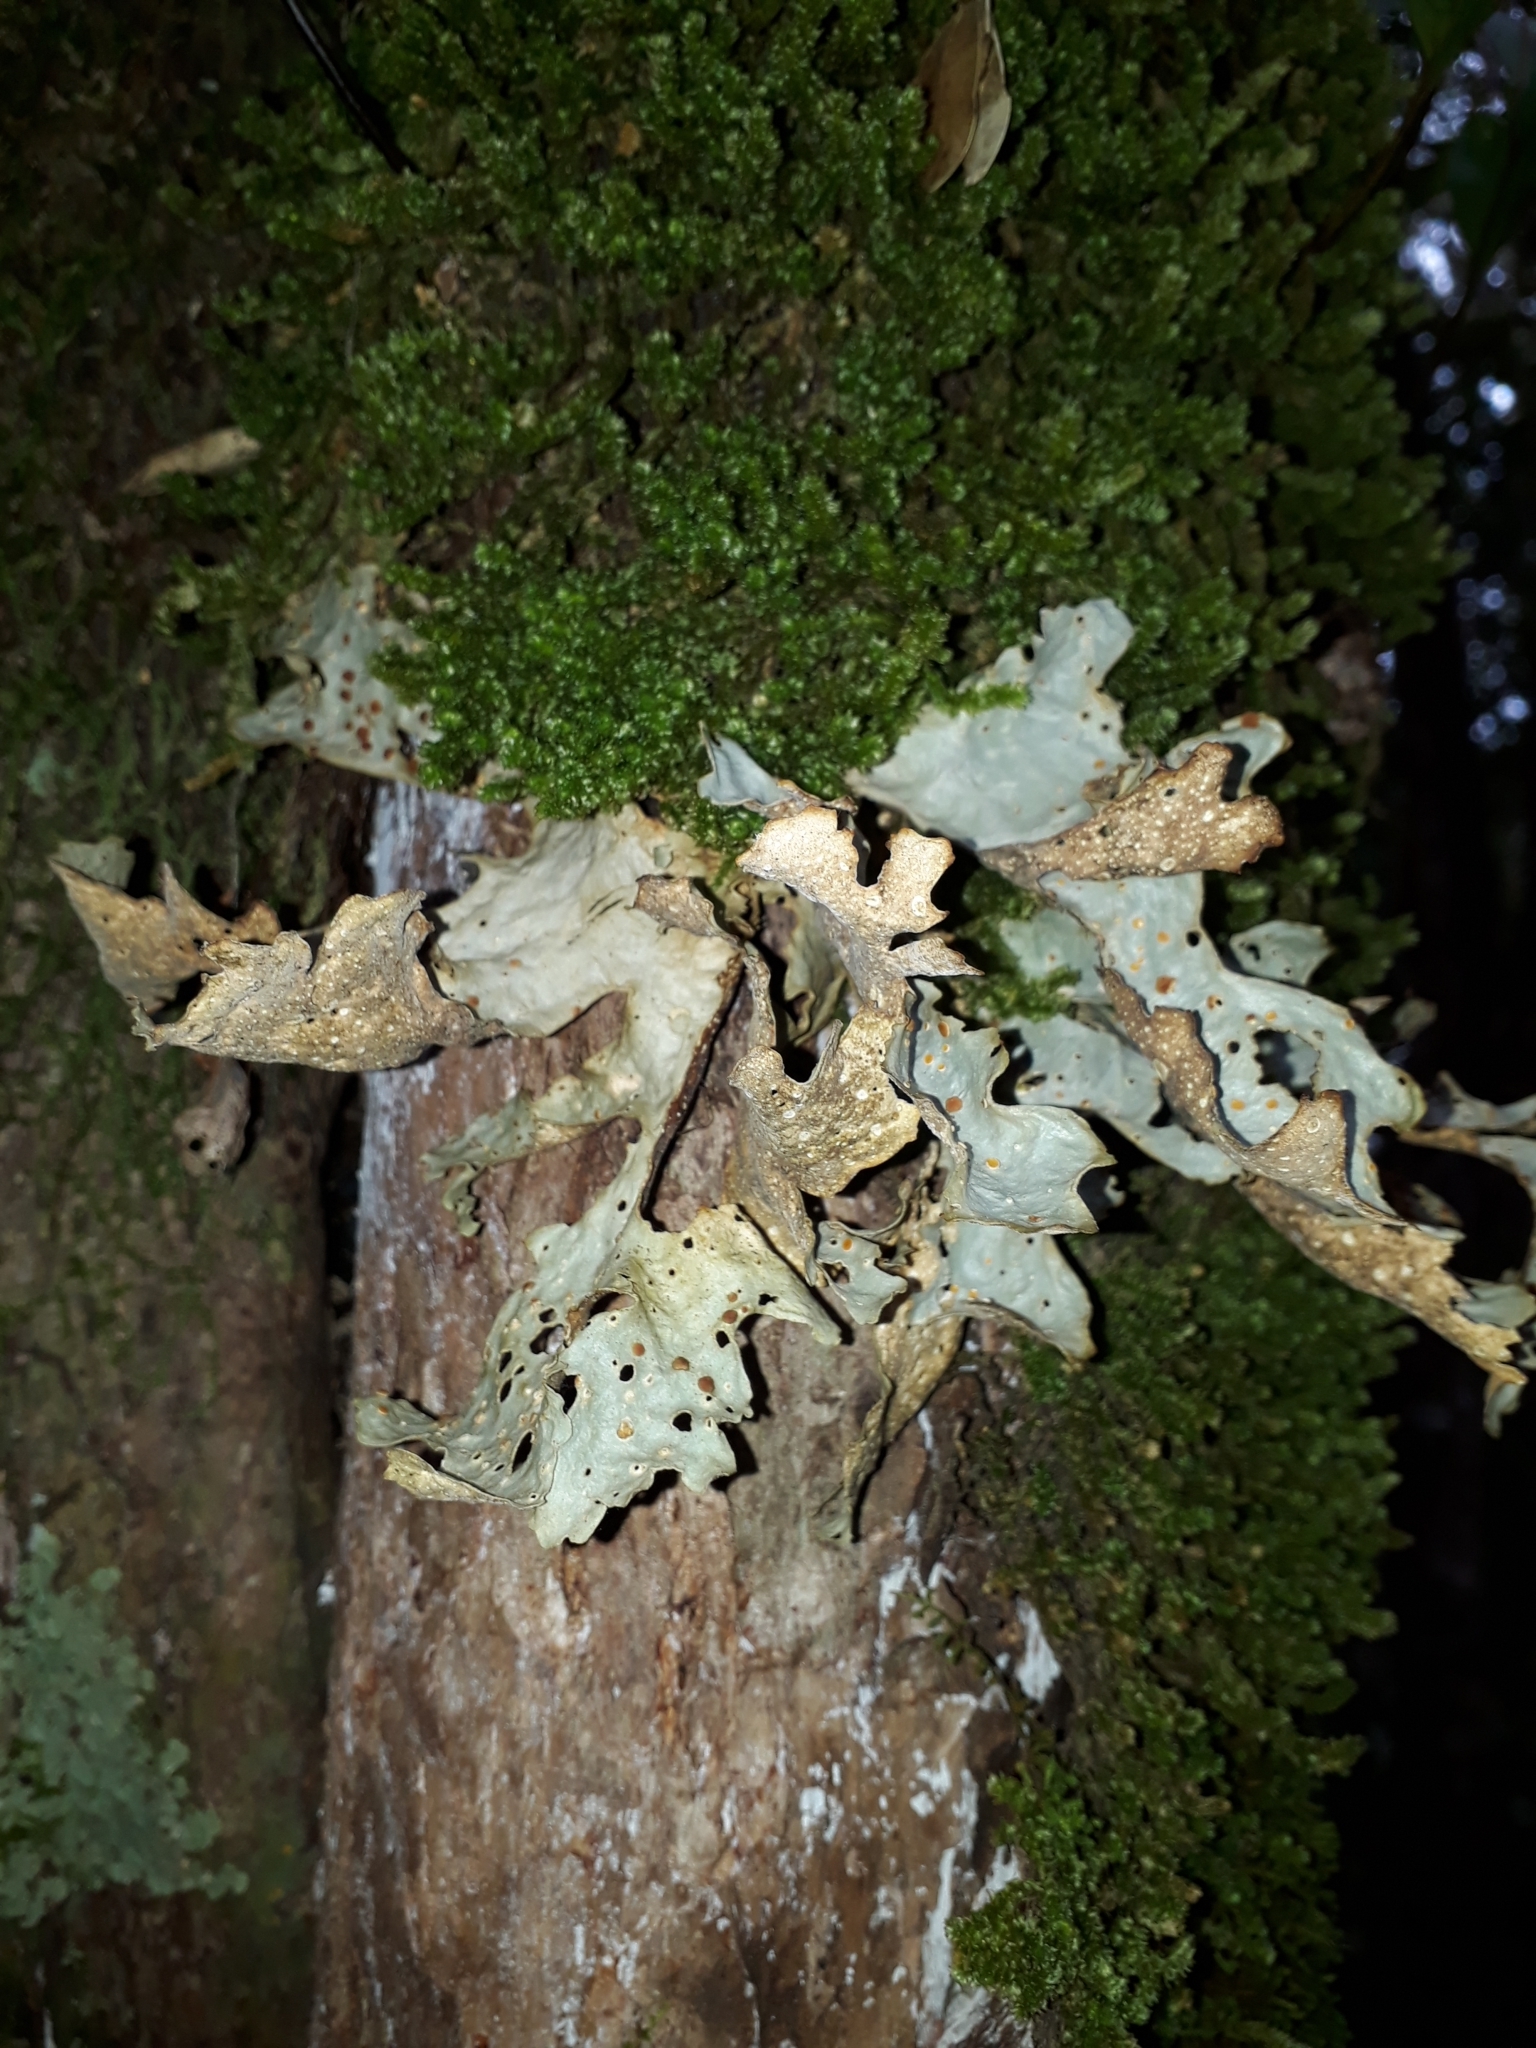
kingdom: Fungi
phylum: Ascomycota
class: Lecanoromycetes
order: Peltigerales
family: Lobariaceae
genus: Sticta
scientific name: Sticta latifrons
